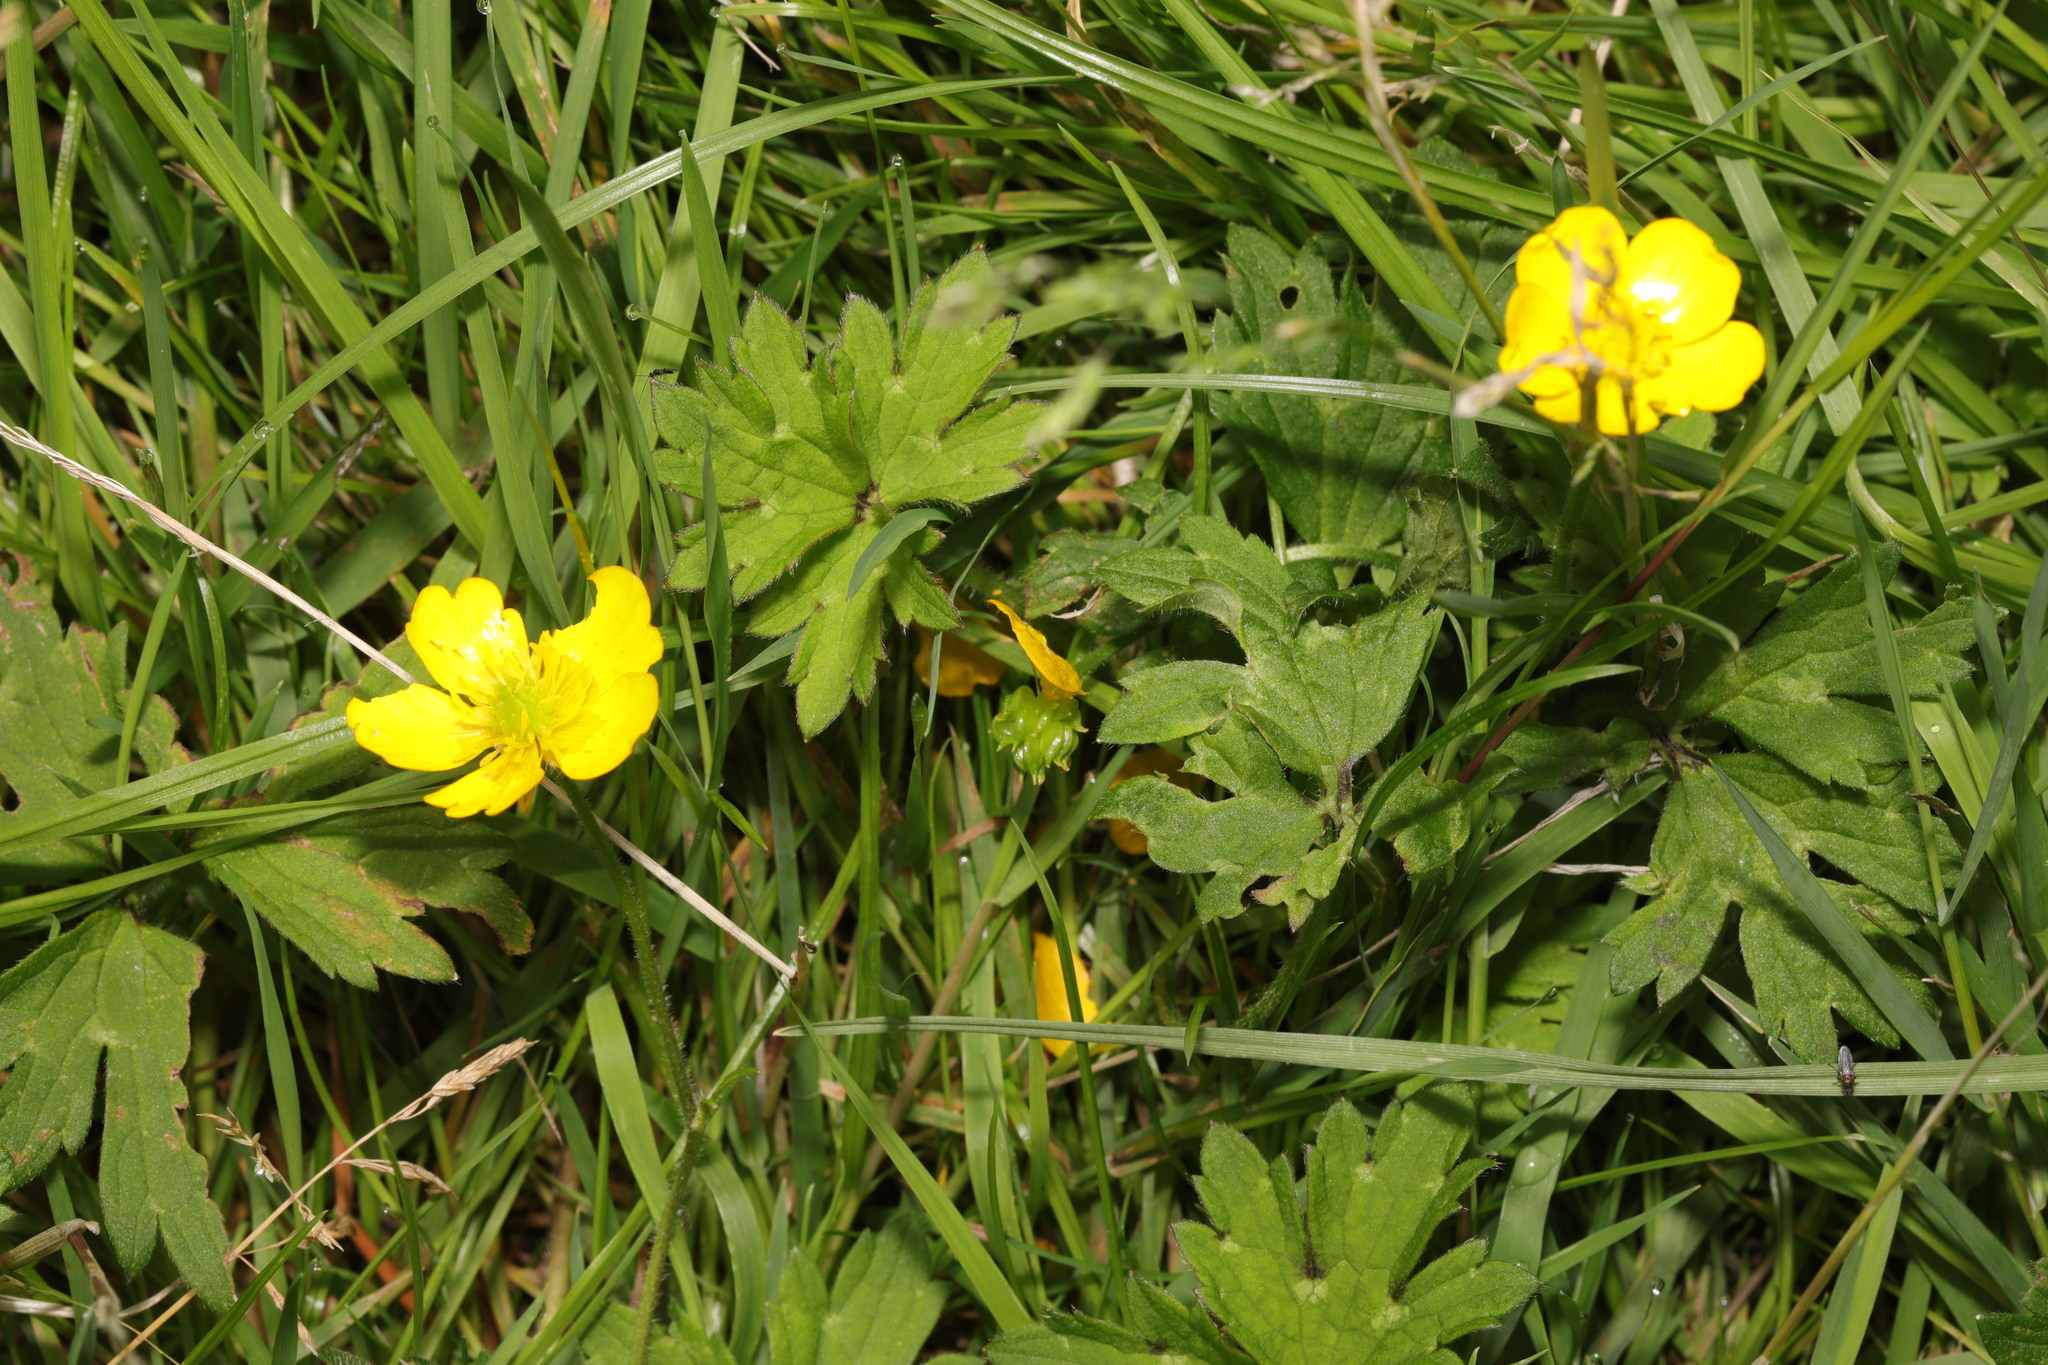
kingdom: Plantae
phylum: Tracheophyta
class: Magnoliopsida
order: Ranunculales
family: Ranunculaceae
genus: Ranunculus
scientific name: Ranunculus repens
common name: Creeping buttercup
